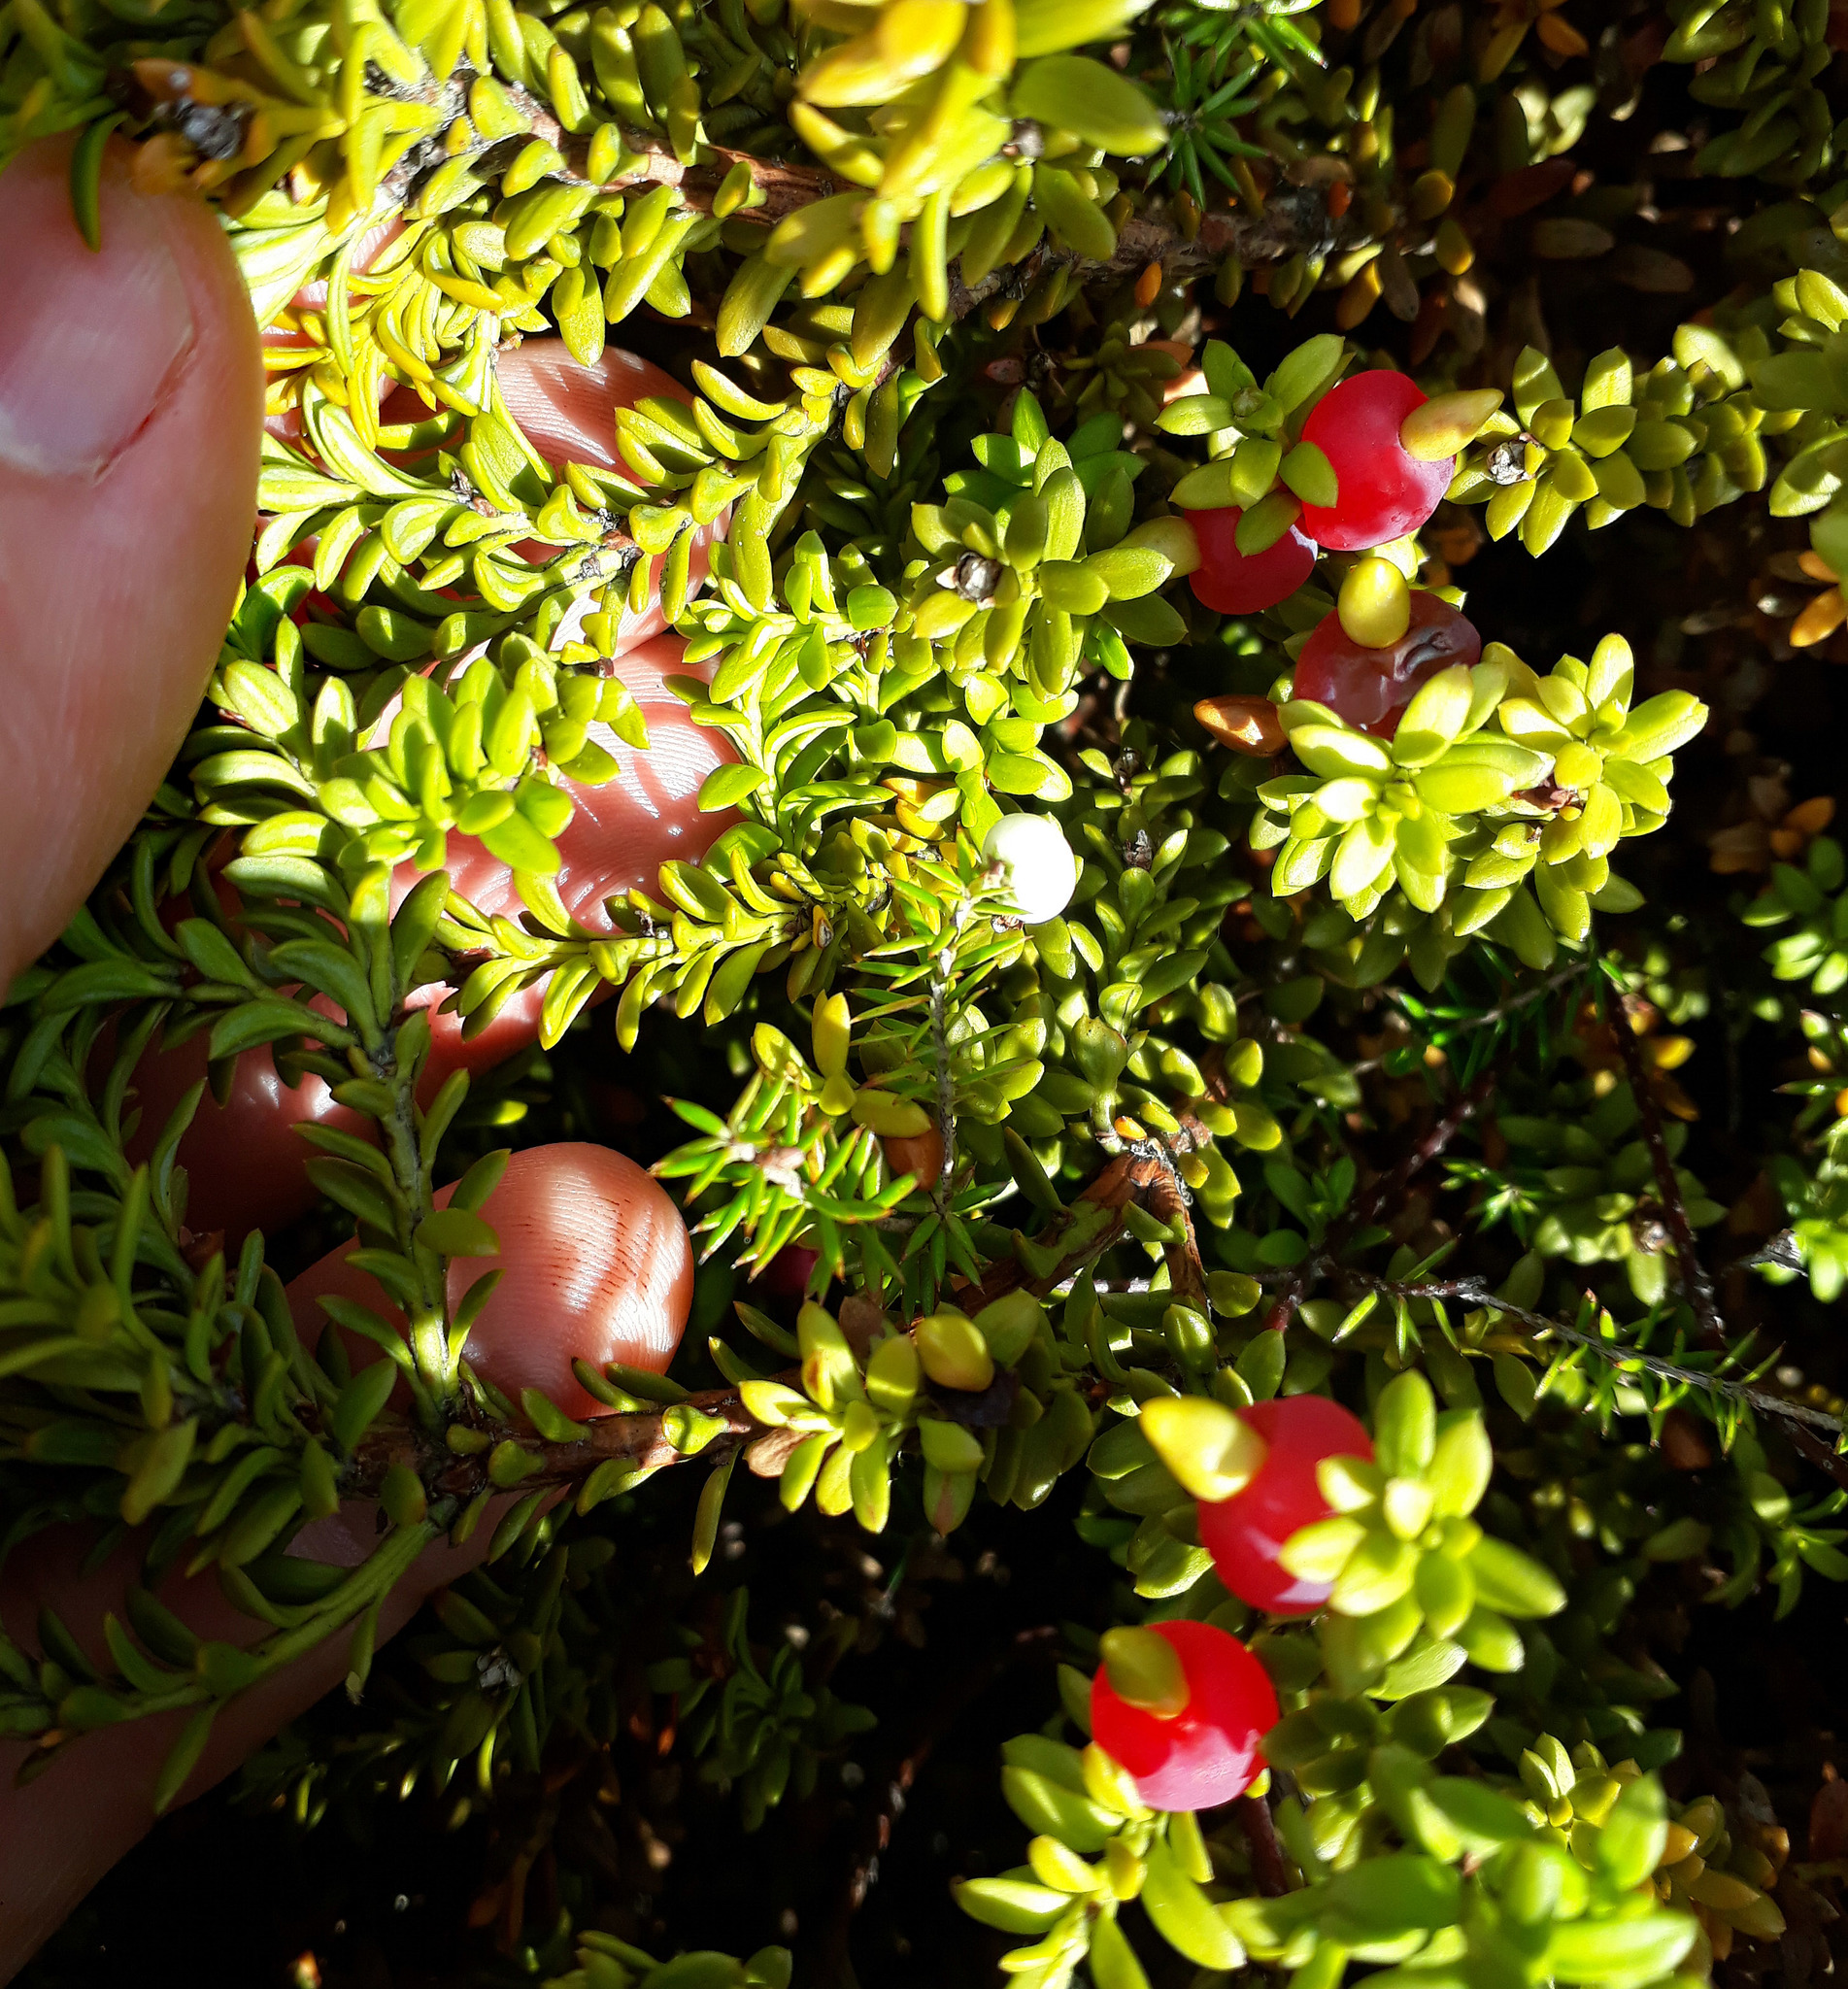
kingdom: Plantae
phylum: Tracheophyta
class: Pinopsida
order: Pinales
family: Podocarpaceae
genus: Podocarpus
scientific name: Podocarpus nivalis
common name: Alpine totara
